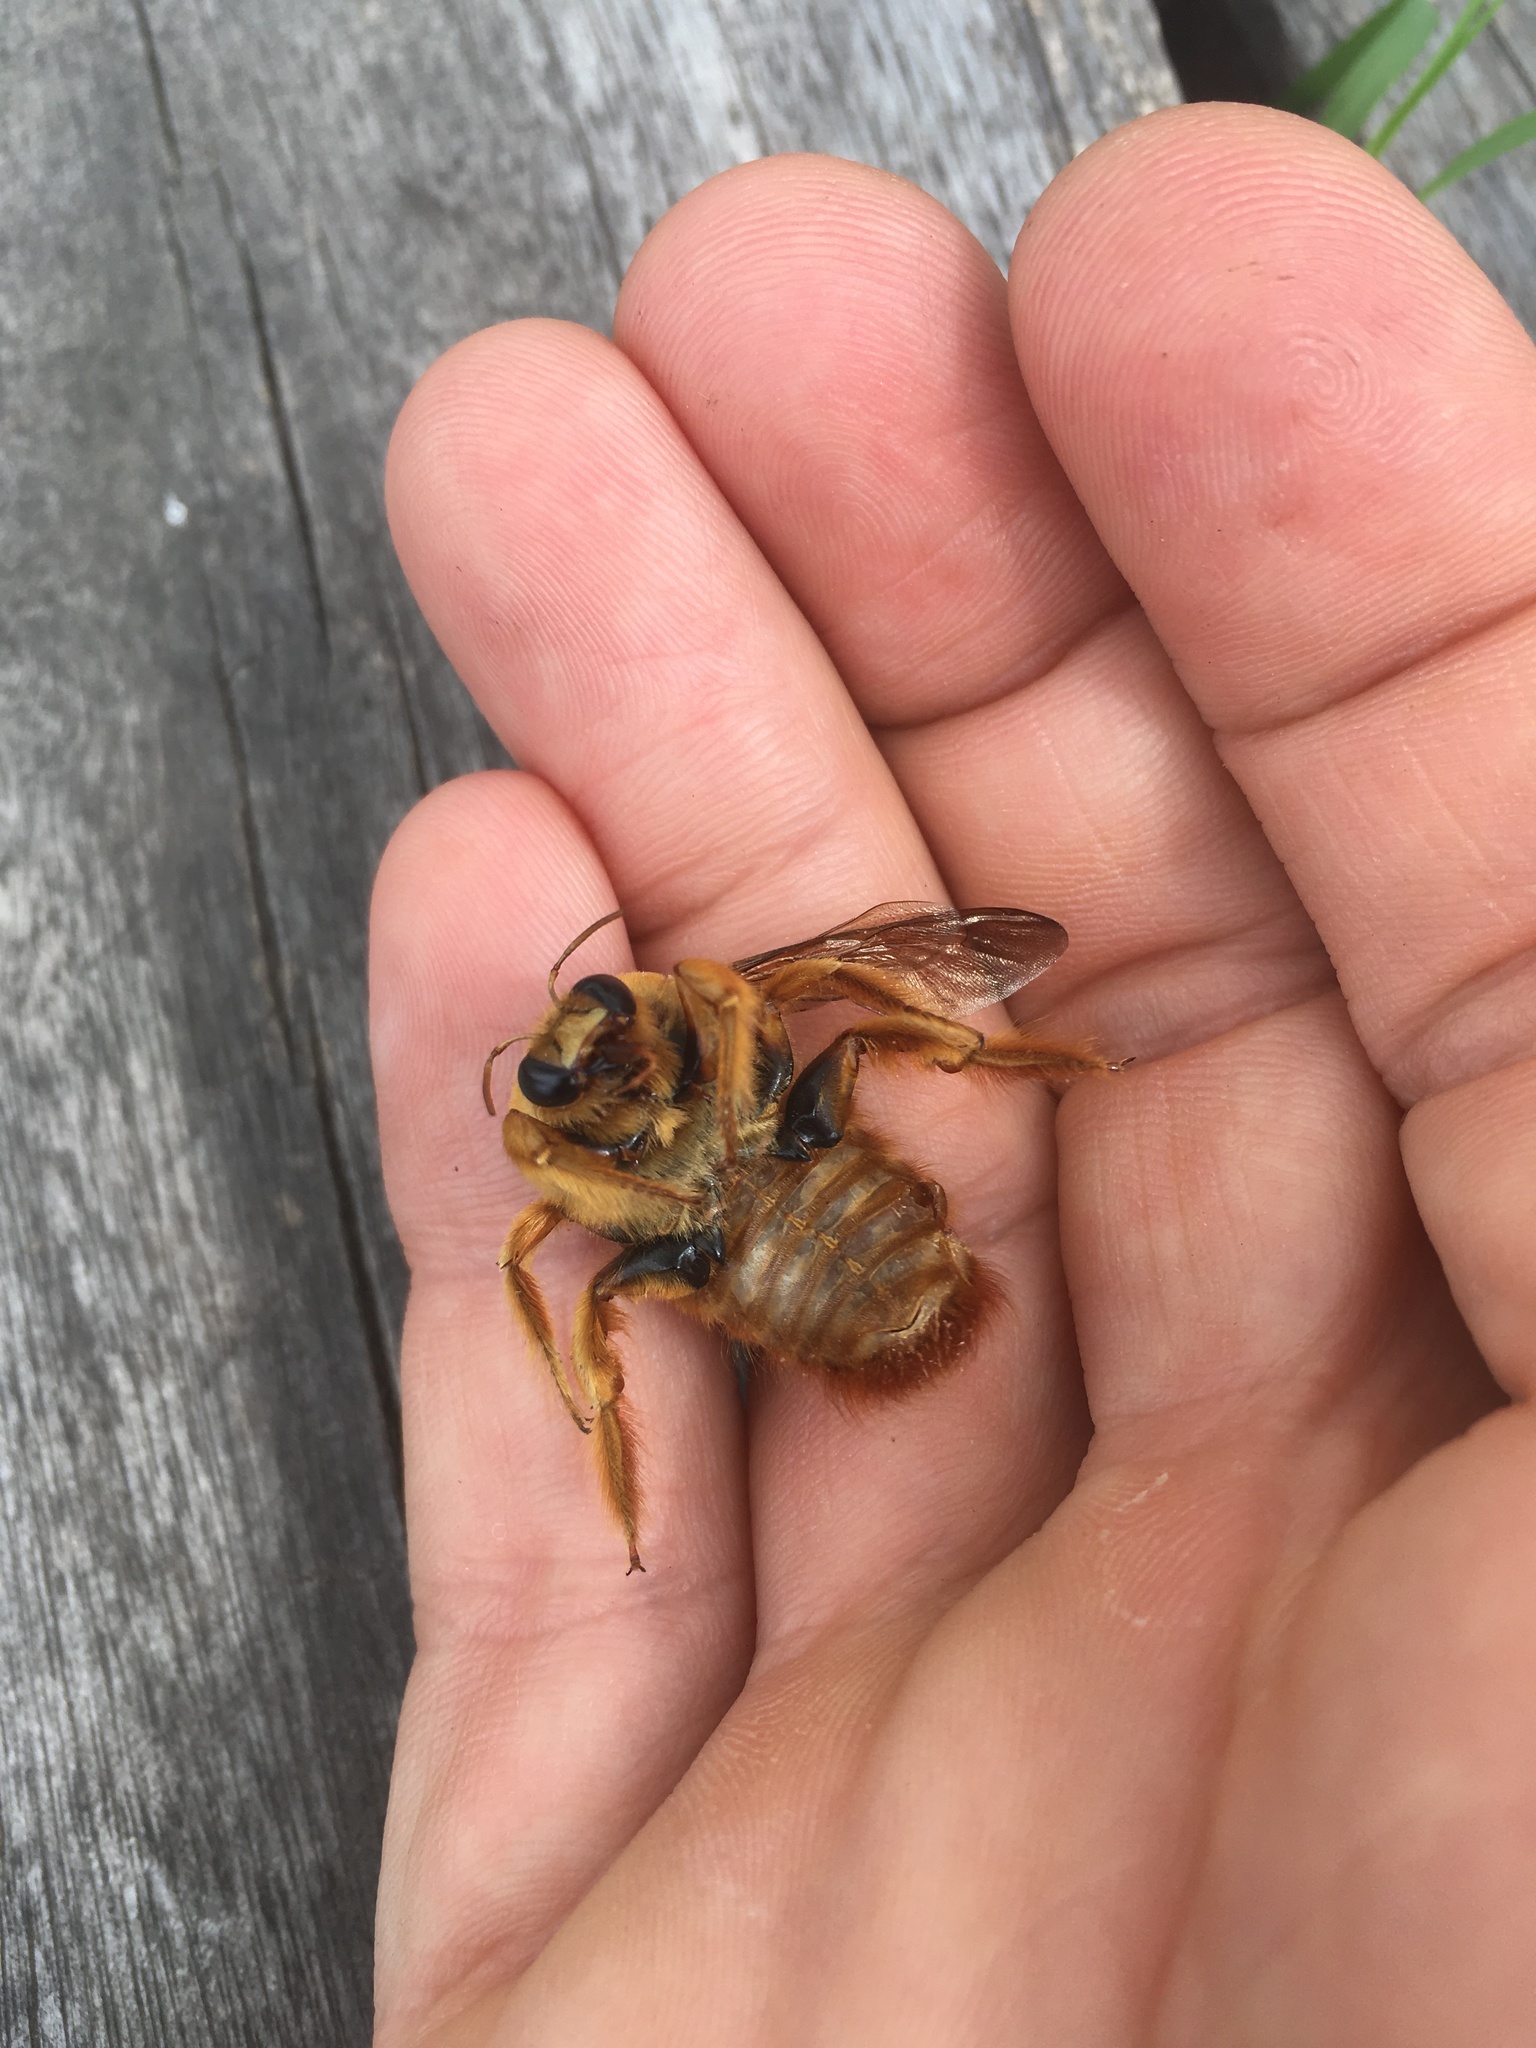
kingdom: Animalia
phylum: Arthropoda
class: Insecta
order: Hymenoptera
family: Apidae
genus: Xylocopa
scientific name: Xylocopa augusti
